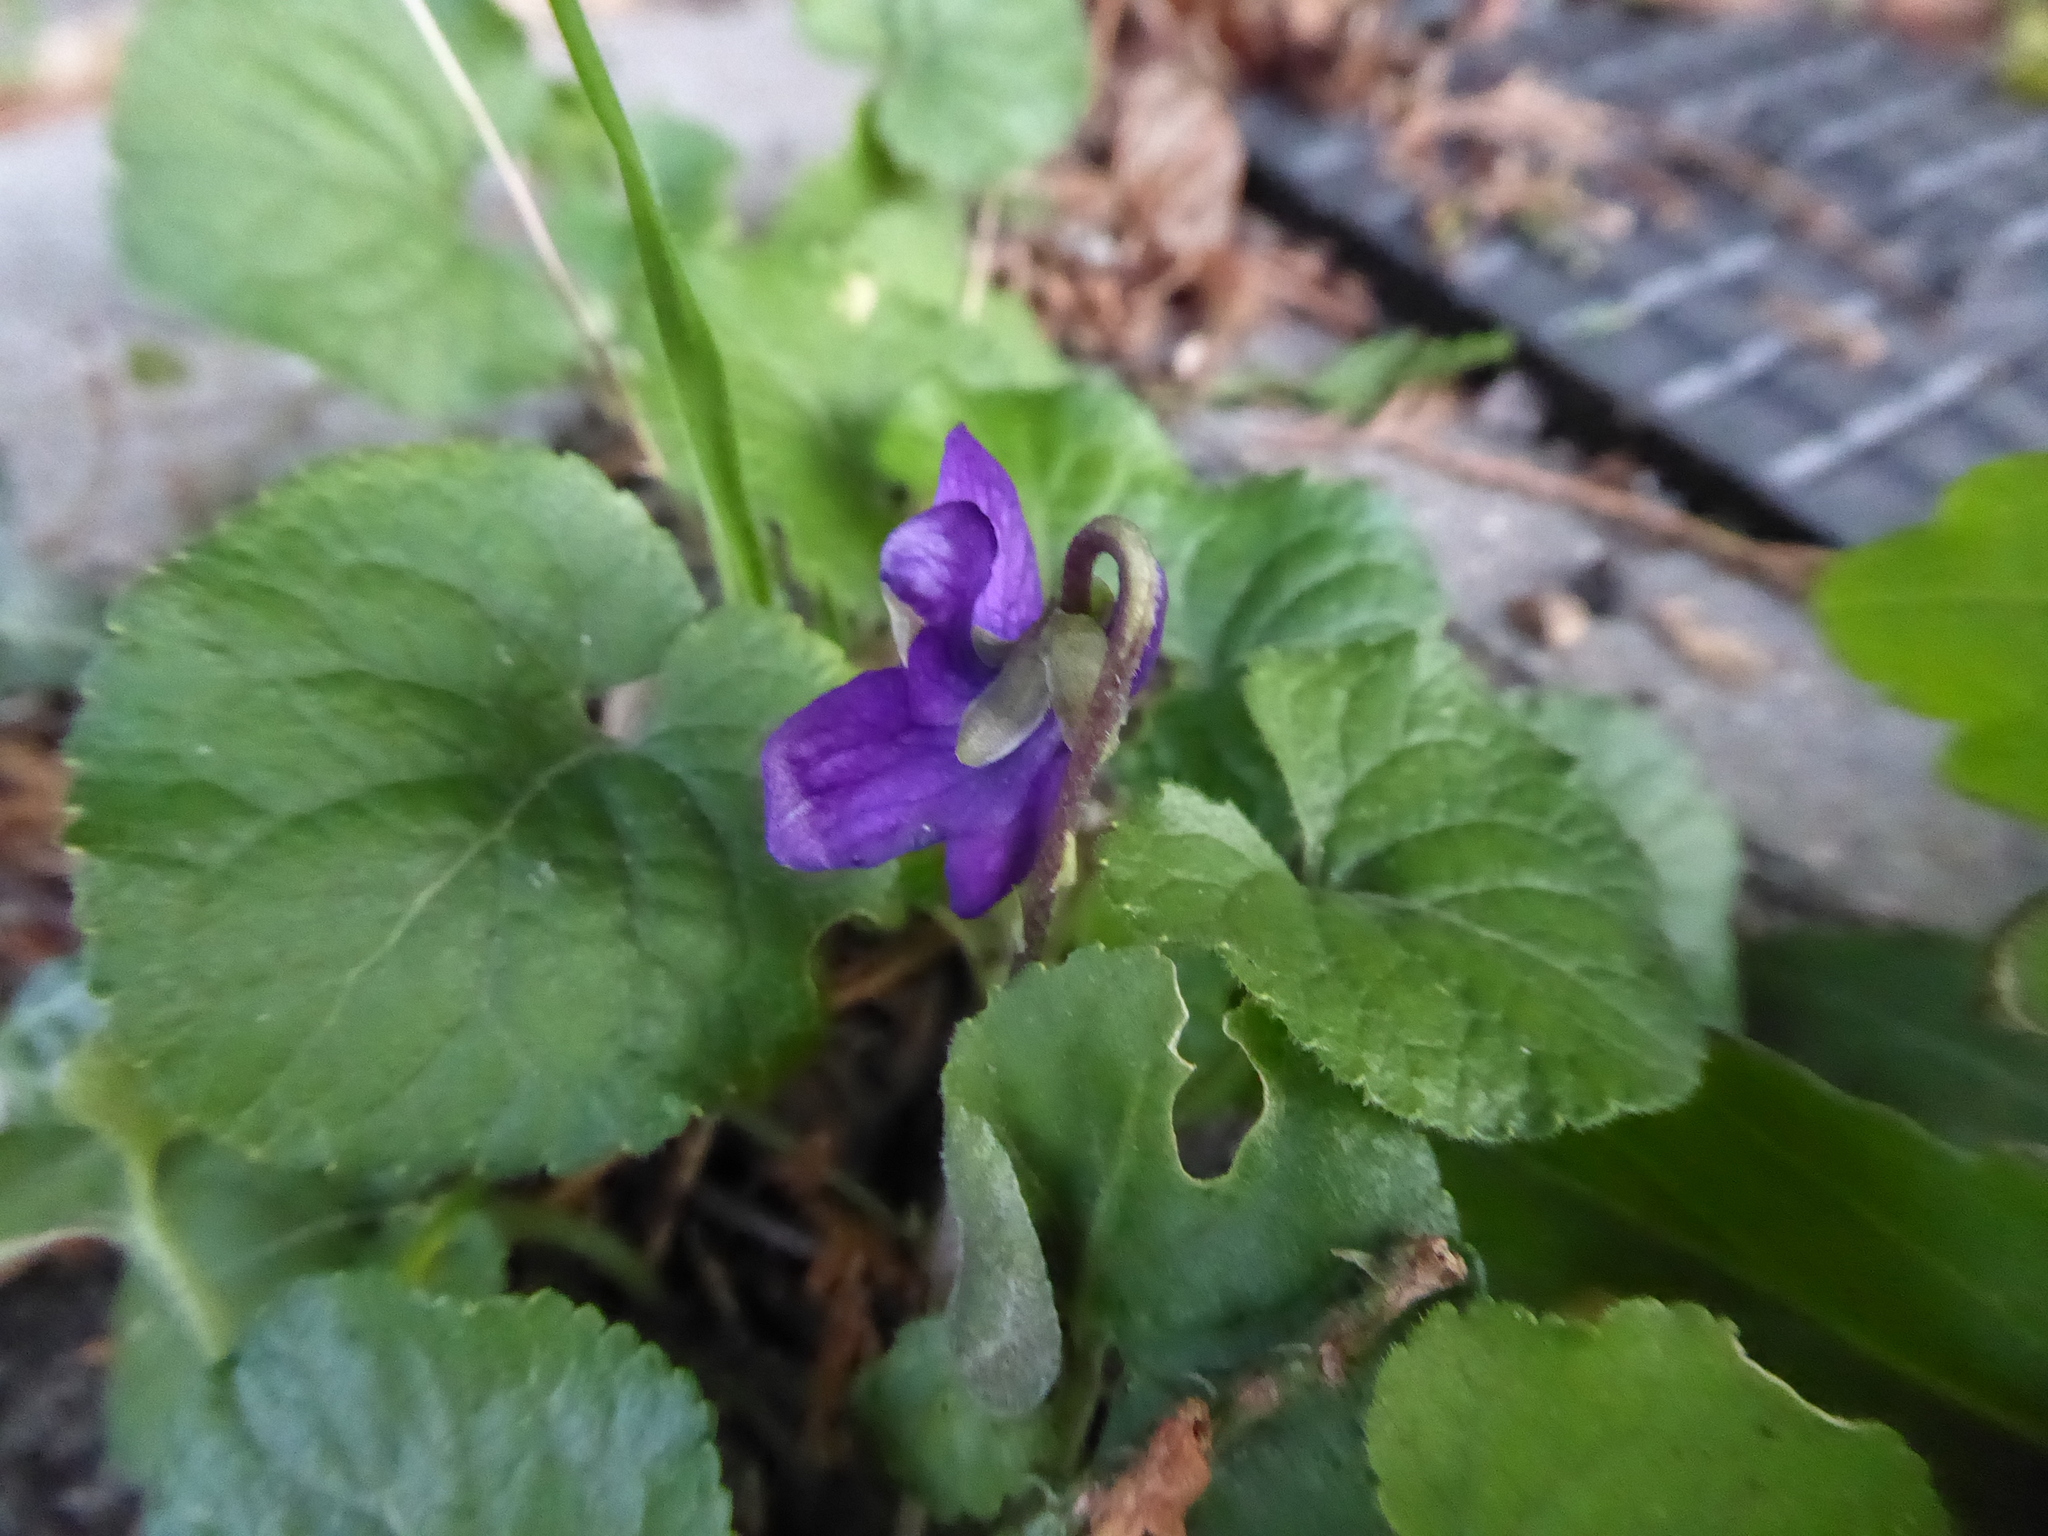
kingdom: Plantae
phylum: Tracheophyta
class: Magnoliopsida
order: Malpighiales
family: Violaceae
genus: Viola
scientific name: Viola odorata
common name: Sweet violet
